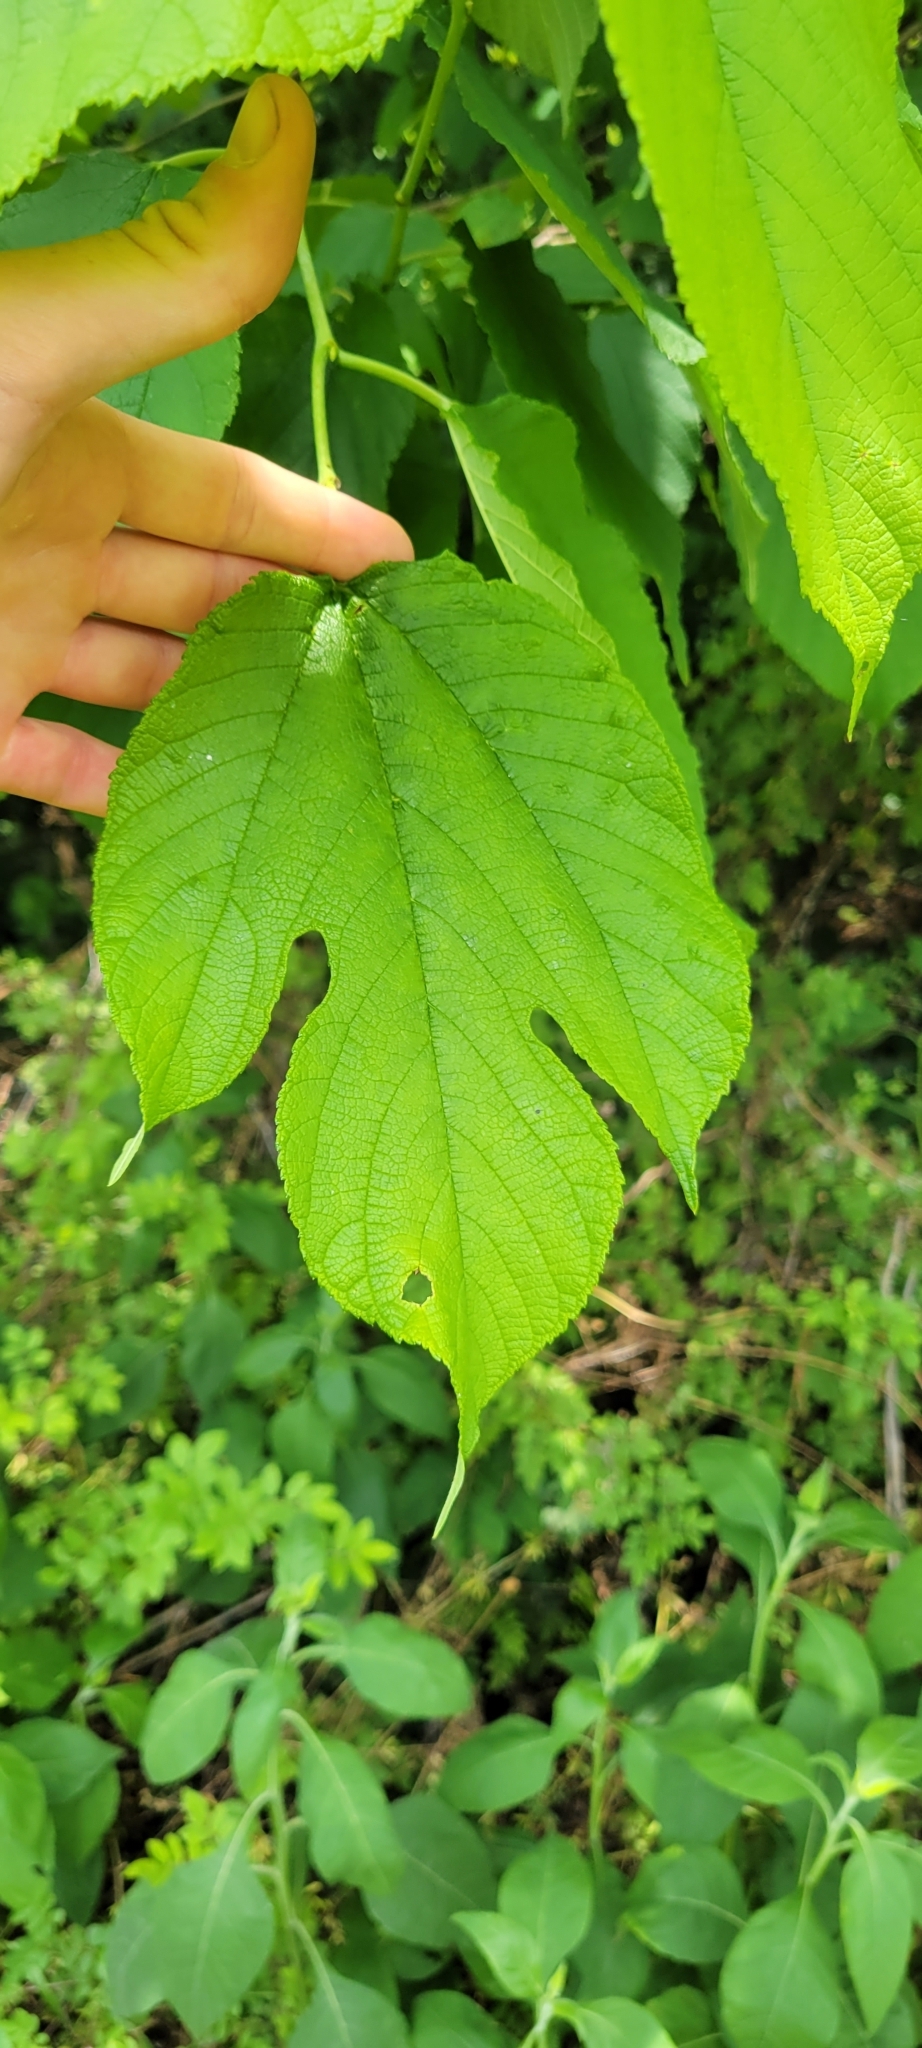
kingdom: Plantae
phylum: Tracheophyta
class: Magnoliopsida
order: Rosales
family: Moraceae
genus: Morus
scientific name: Morus rubra
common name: Red mulberry
